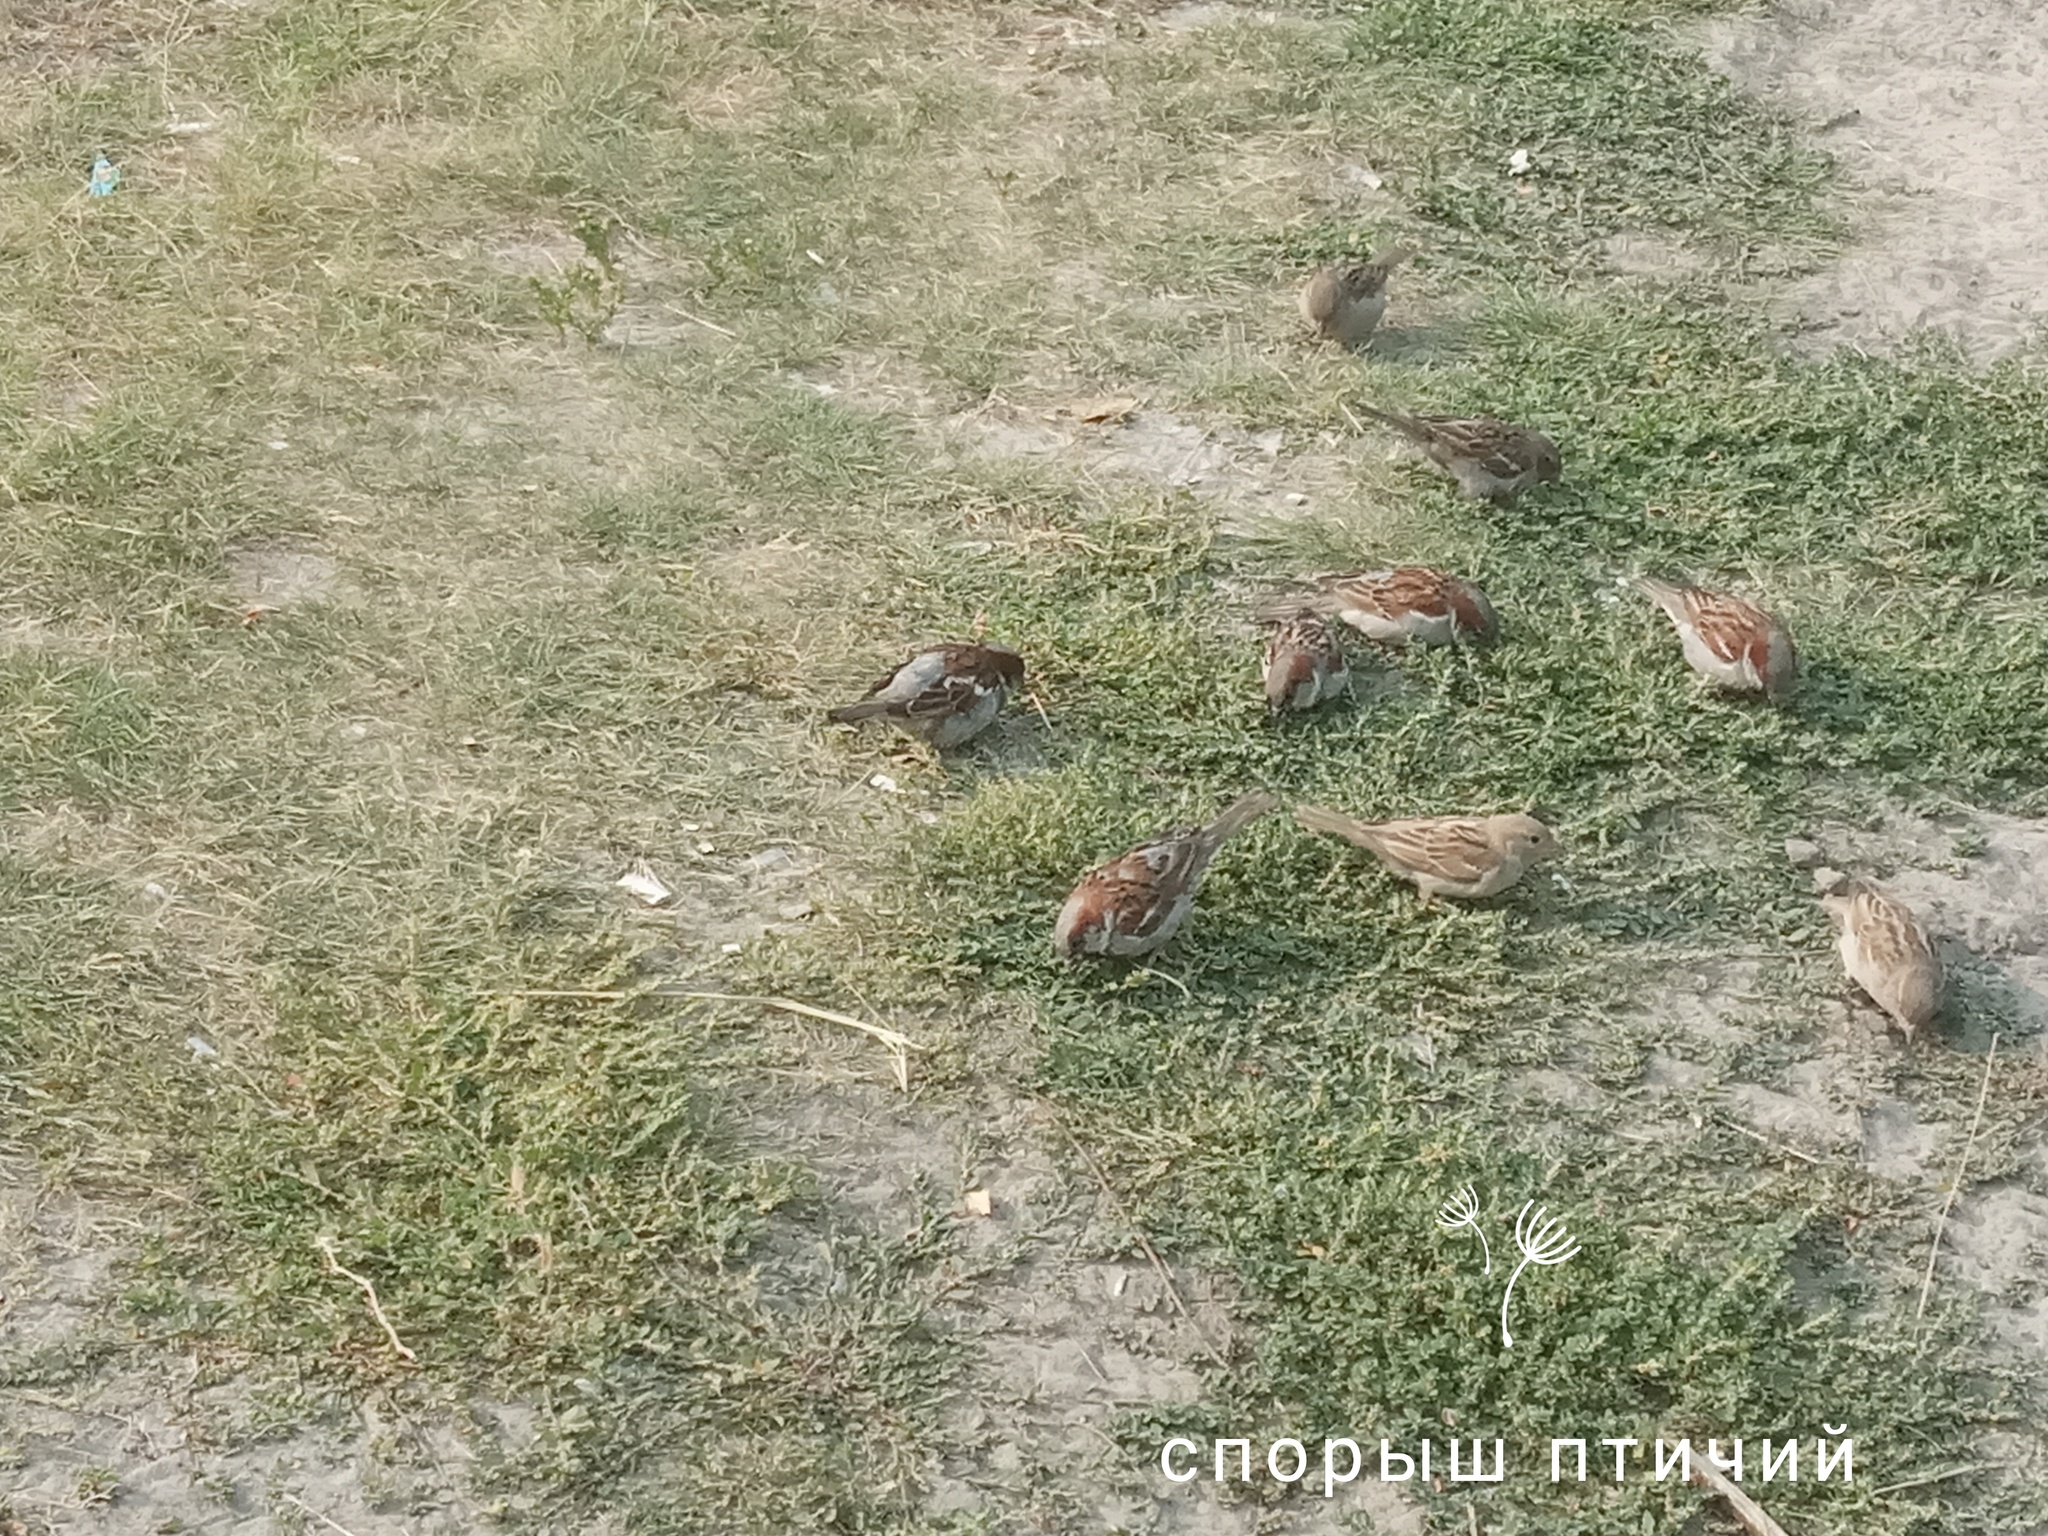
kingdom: Animalia
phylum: Chordata
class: Aves
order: Passeriformes
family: Passeridae
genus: Passer
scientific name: Passer domesticus
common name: House sparrow
